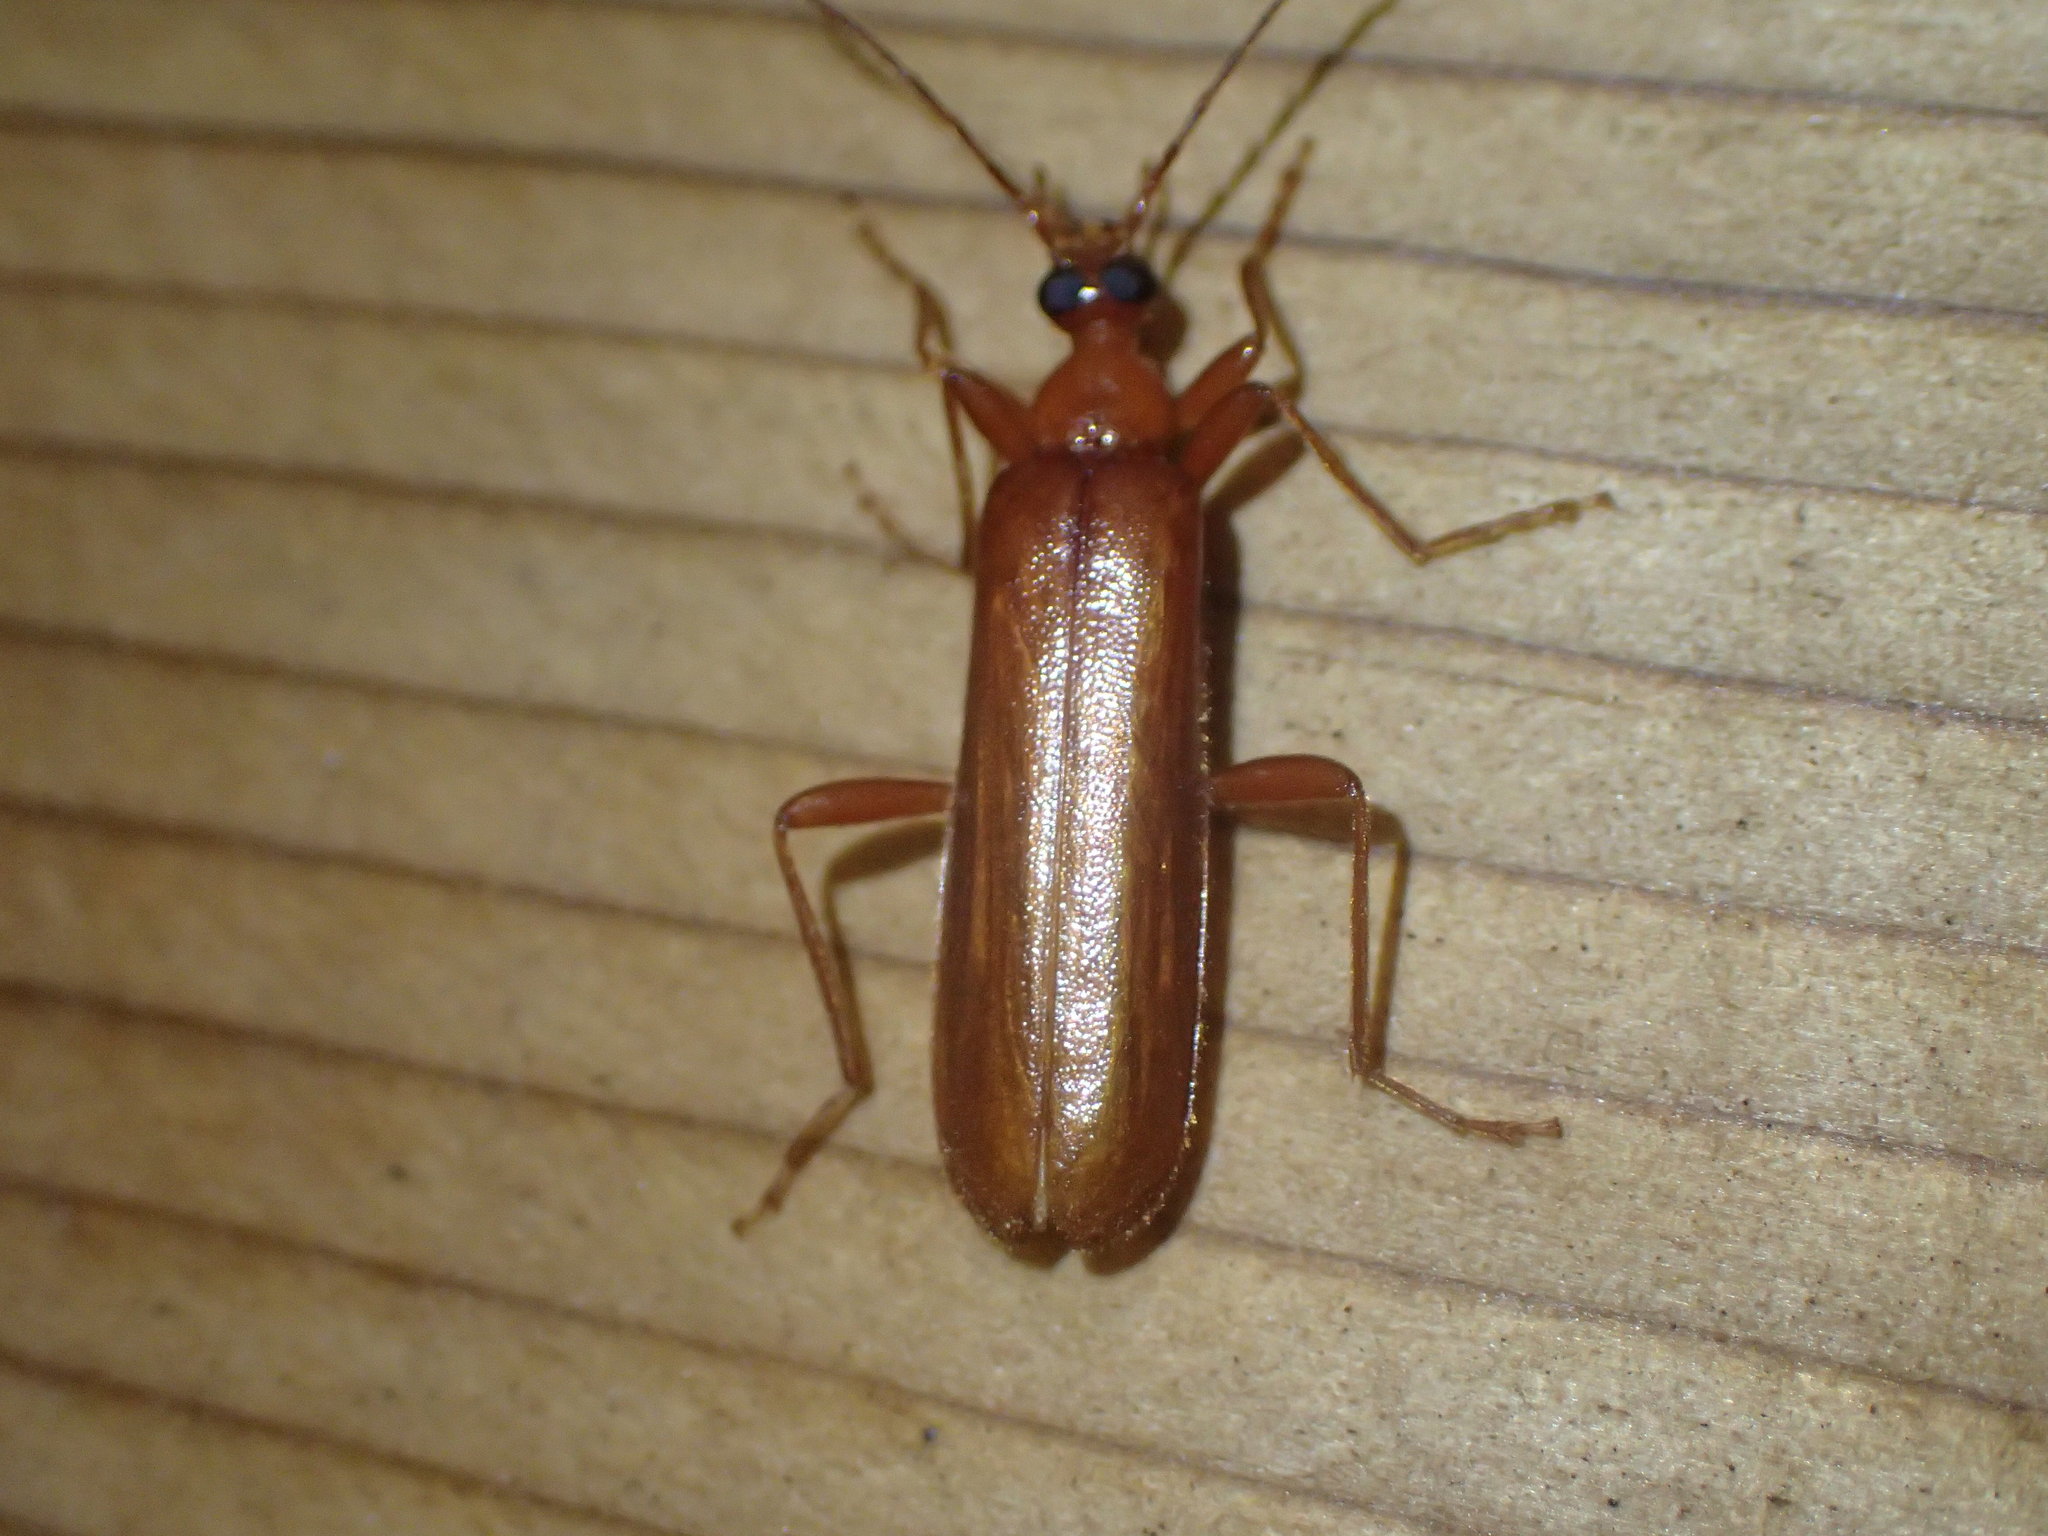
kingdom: Animalia
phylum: Arthropoda
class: Insecta
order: Coleoptera
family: Pyrochroidae
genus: Dendroides
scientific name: Dendroides concolor
